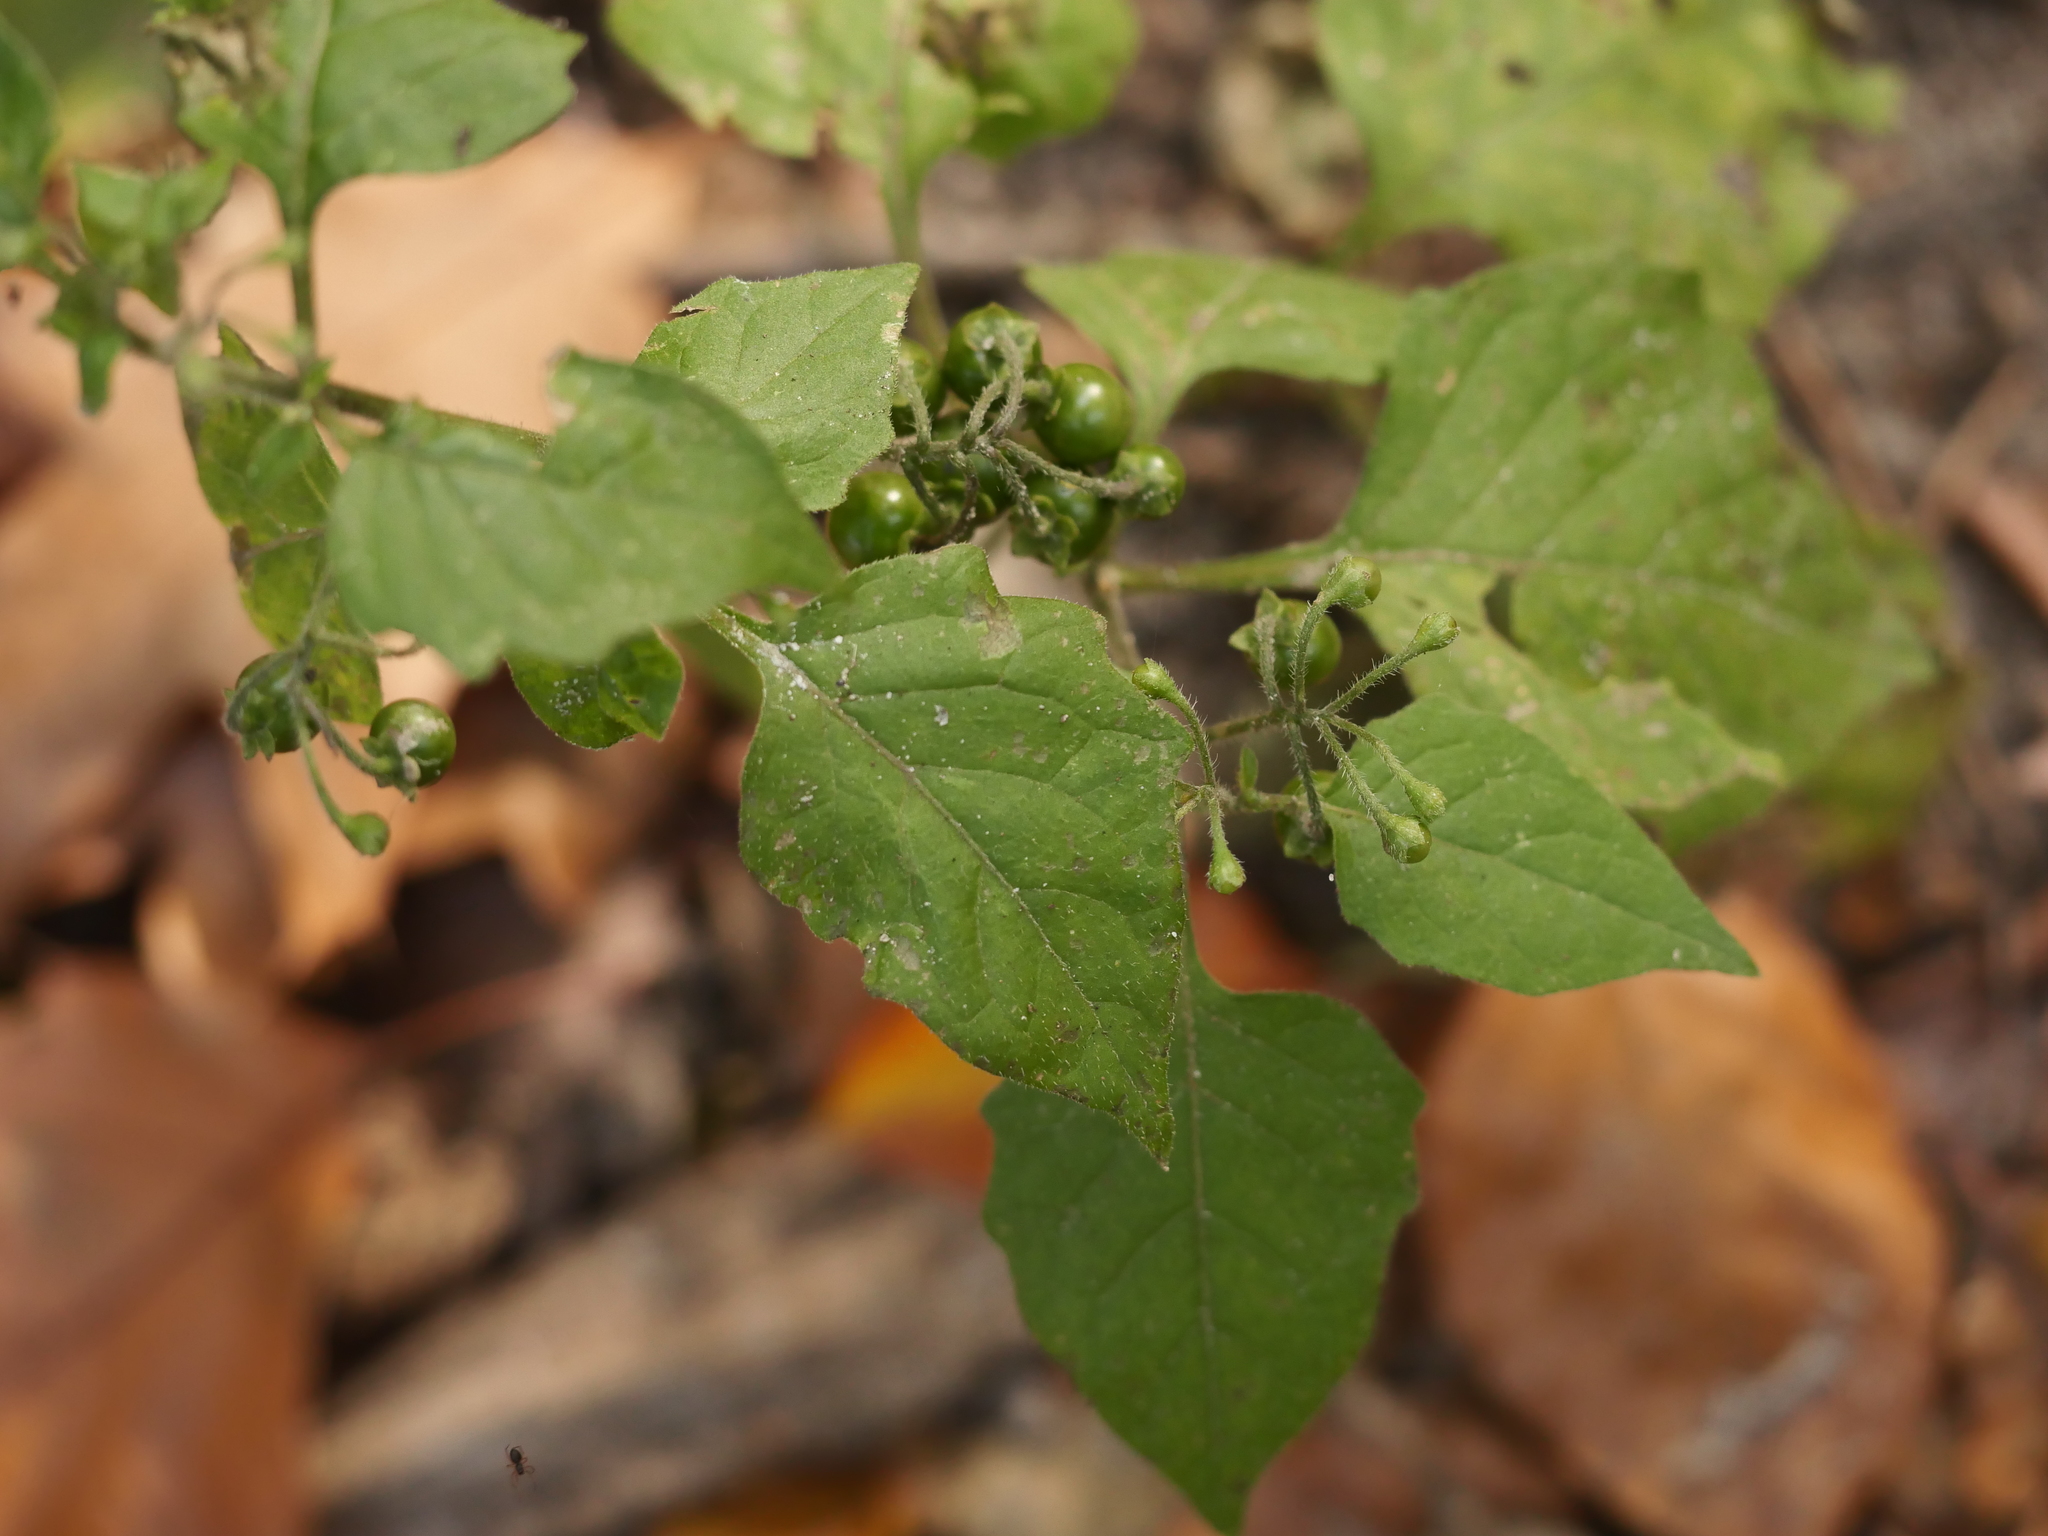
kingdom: Plantae
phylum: Tracheophyta
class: Magnoliopsida
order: Solanales
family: Solanaceae
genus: Solanum
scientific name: Solanum nigrum
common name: Black nightshade
